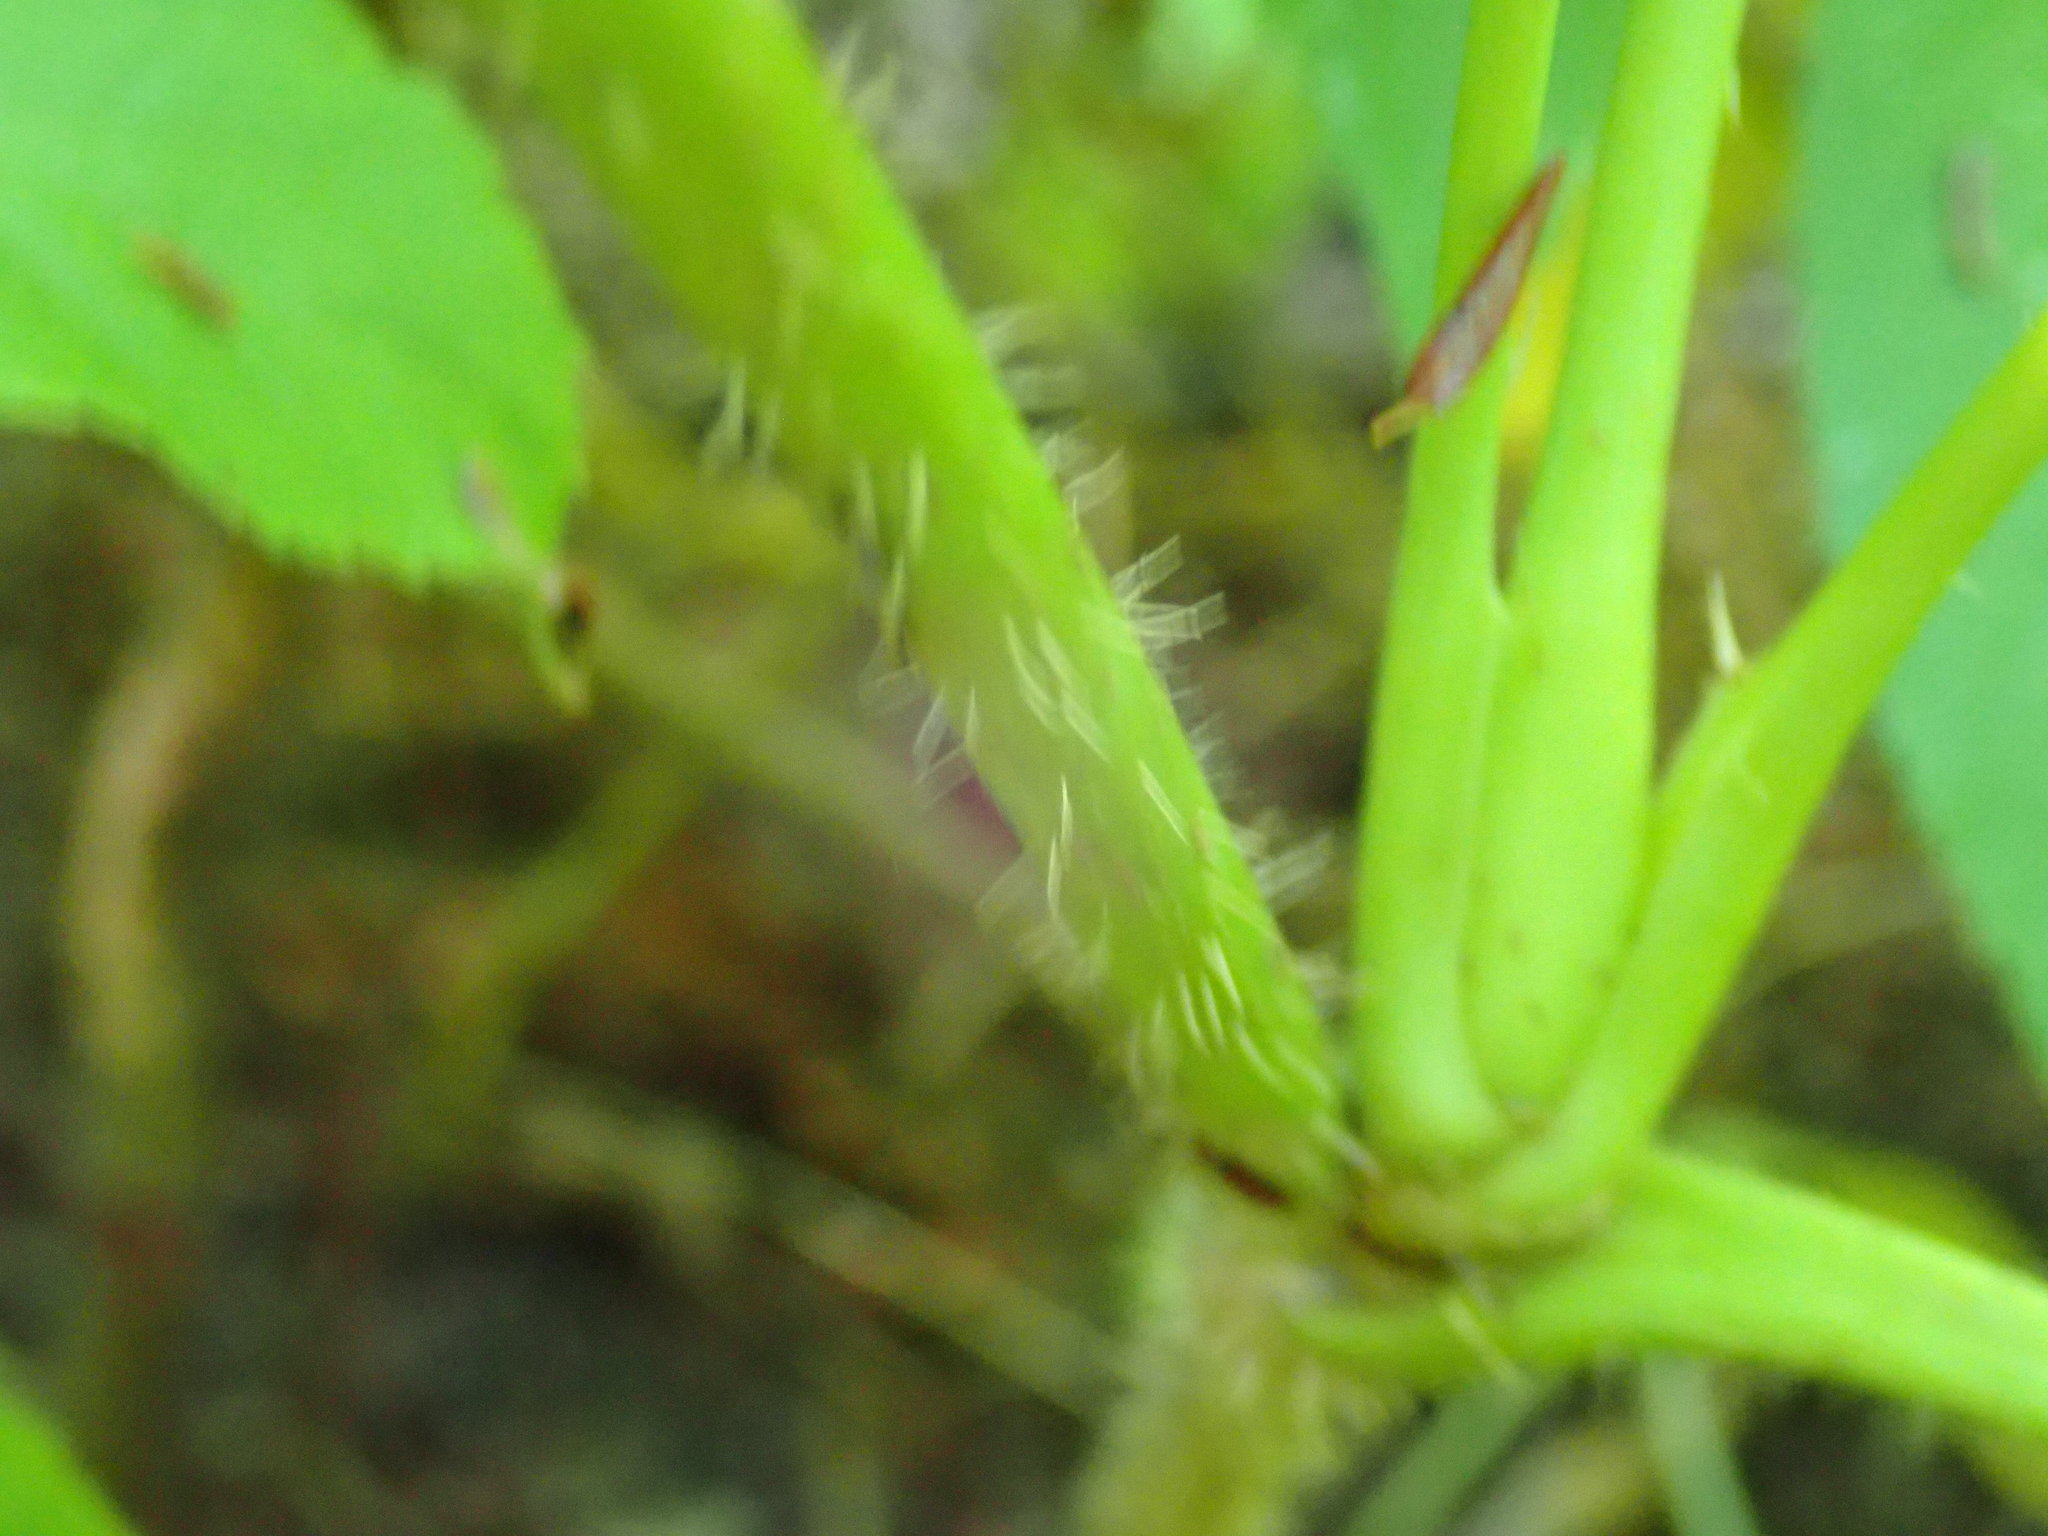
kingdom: Plantae
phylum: Tracheophyta
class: Magnoliopsida
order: Apiales
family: Araliaceae
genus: Aralia
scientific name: Aralia hispida
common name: Bristly sarsaparilla
